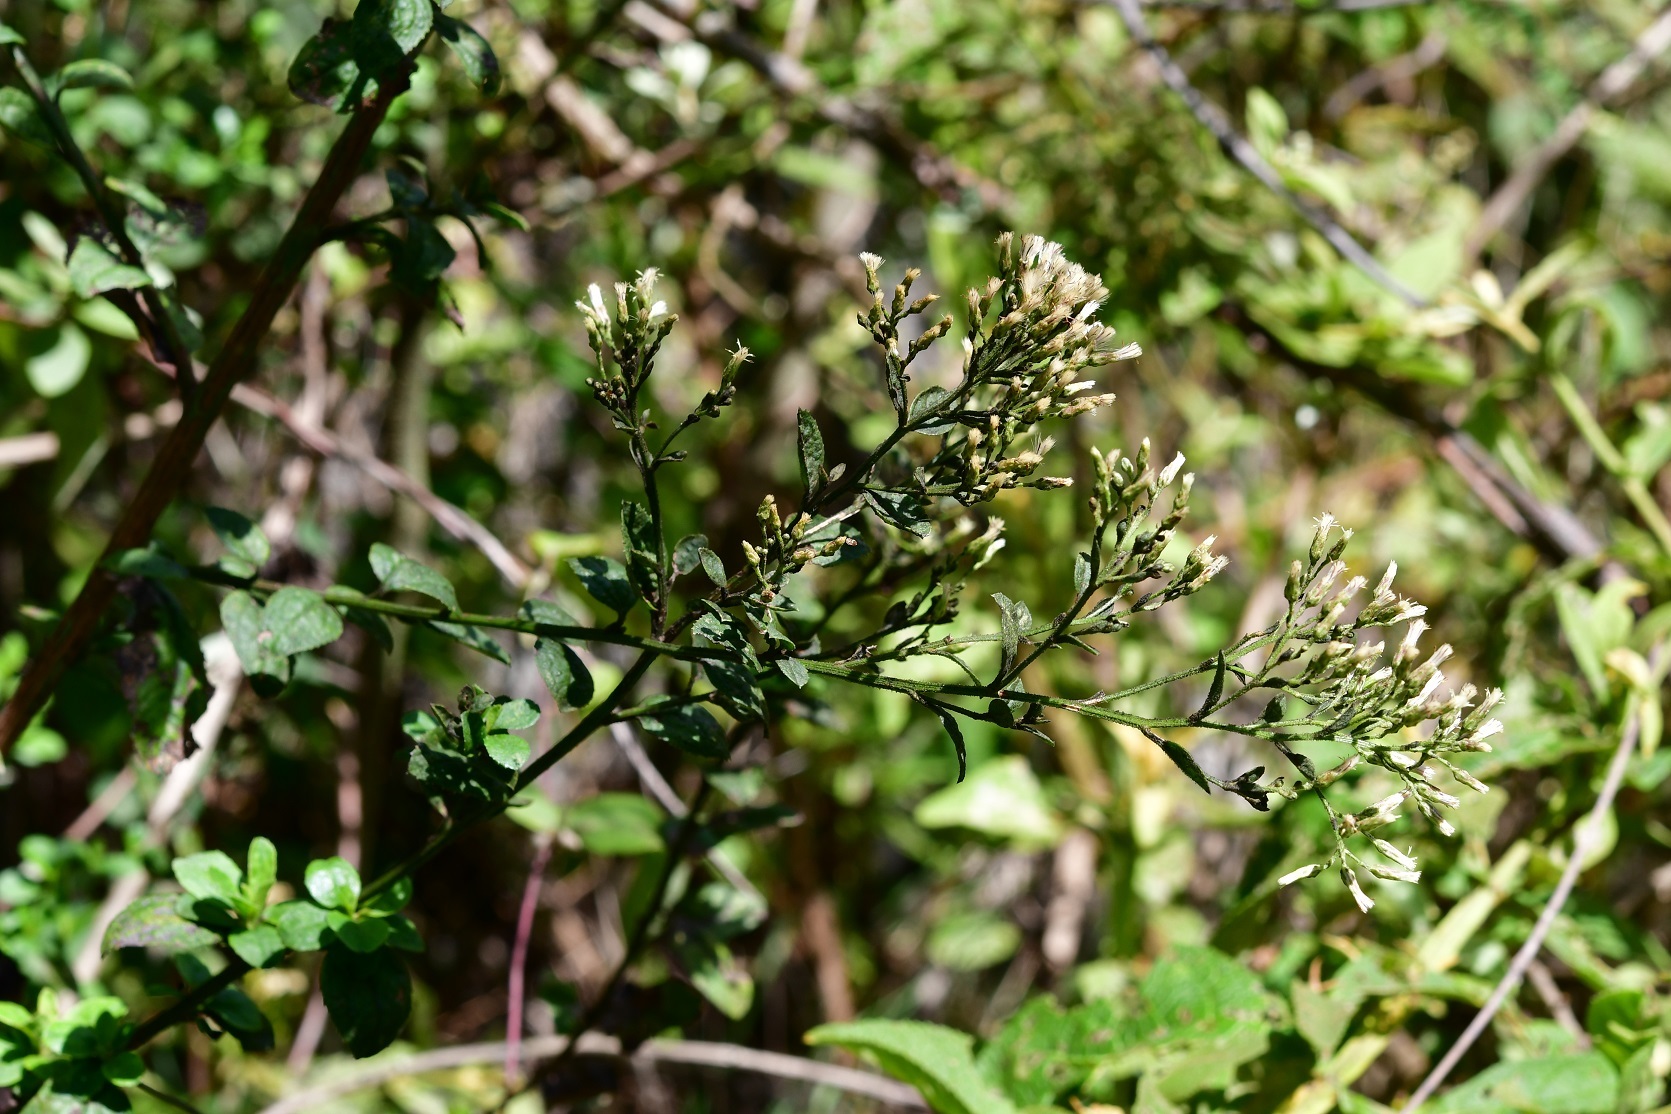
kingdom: Plantae
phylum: Tracheophyta
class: Magnoliopsida
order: Asterales
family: Asteraceae
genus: Archibaccharis
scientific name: Archibaccharis serratifolia
